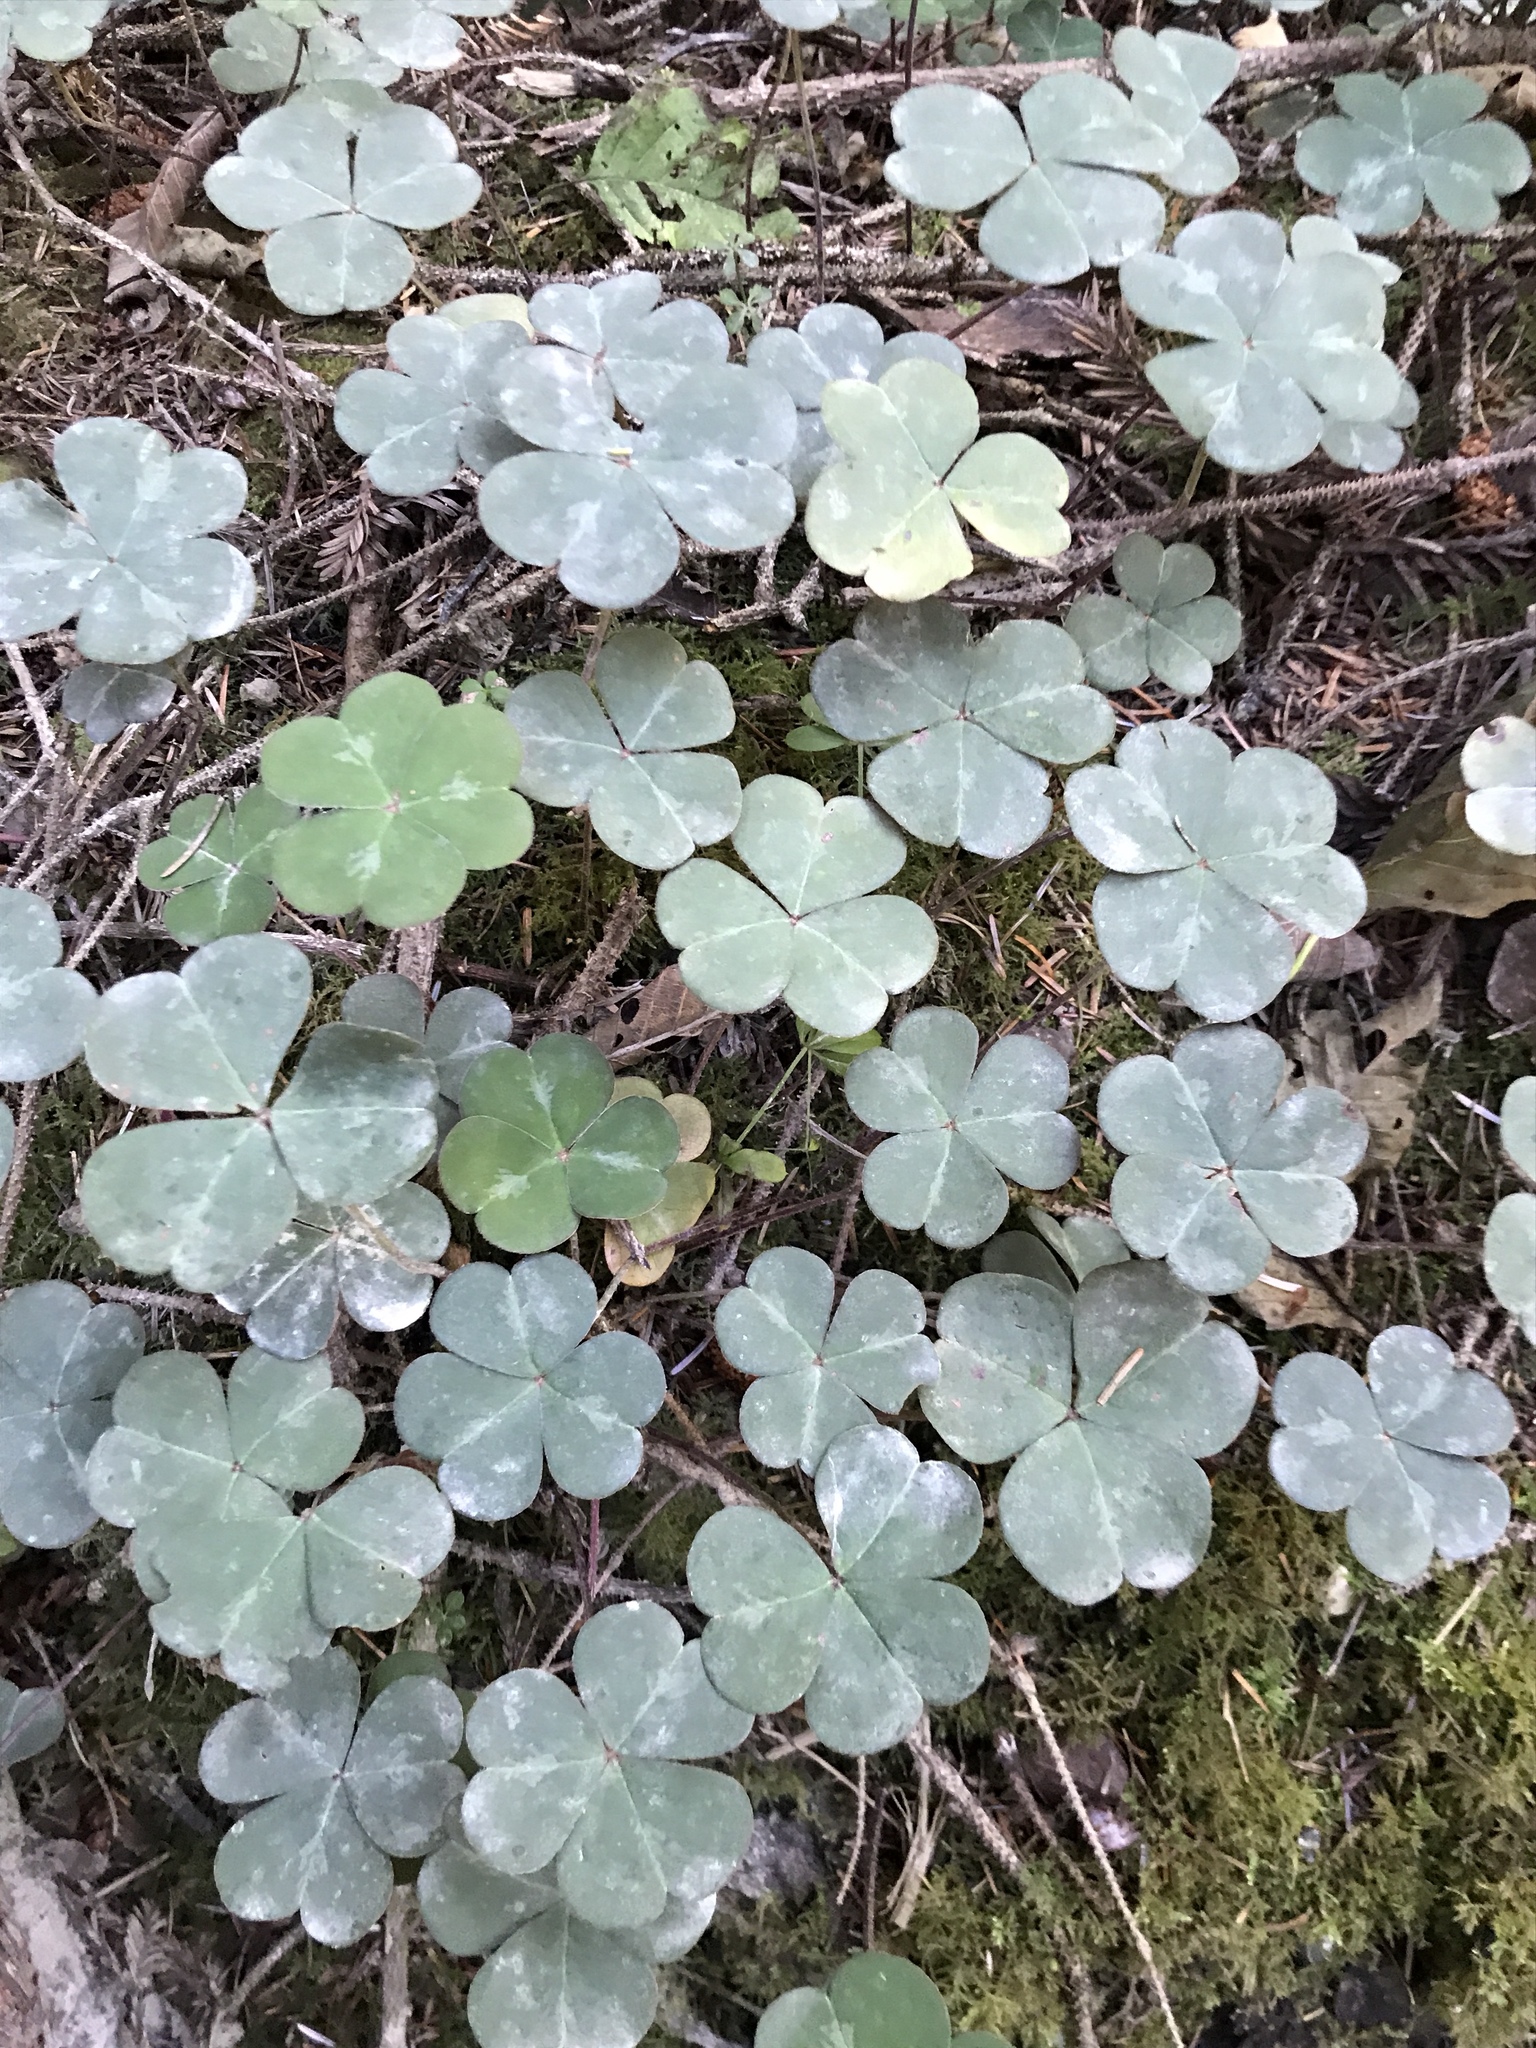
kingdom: Plantae
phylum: Tracheophyta
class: Magnoliopsida
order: Oxalidales
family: Oxalidaceae
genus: Oxalis
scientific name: Oxalis oregana
